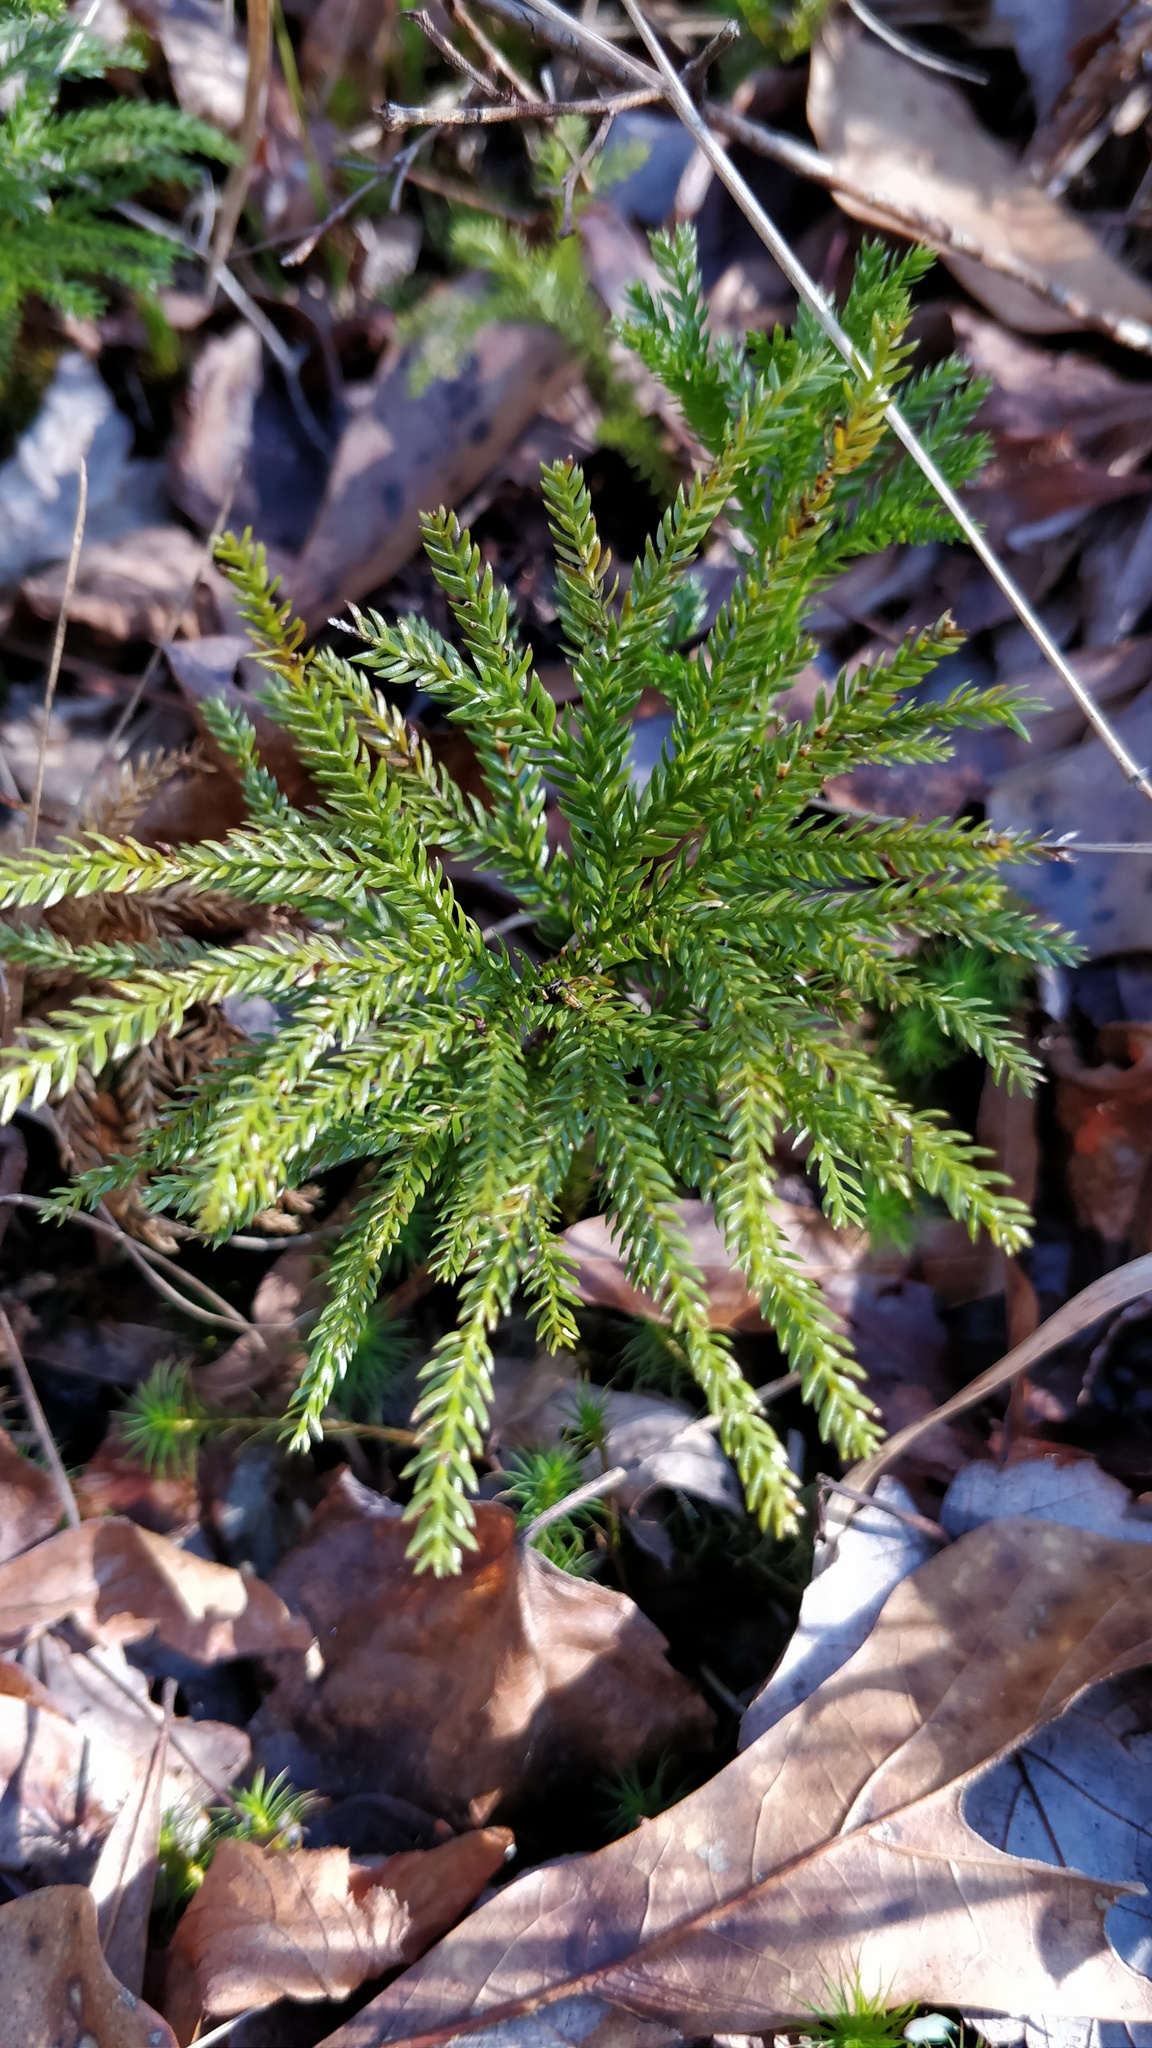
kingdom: Plantae
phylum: Tracheophyta
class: Lycopodiopsida
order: Lycopodiales
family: Lycopodiaceae
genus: Dendrolycopodium
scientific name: Dendrolycopodium obscurum
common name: Common ground-pine
